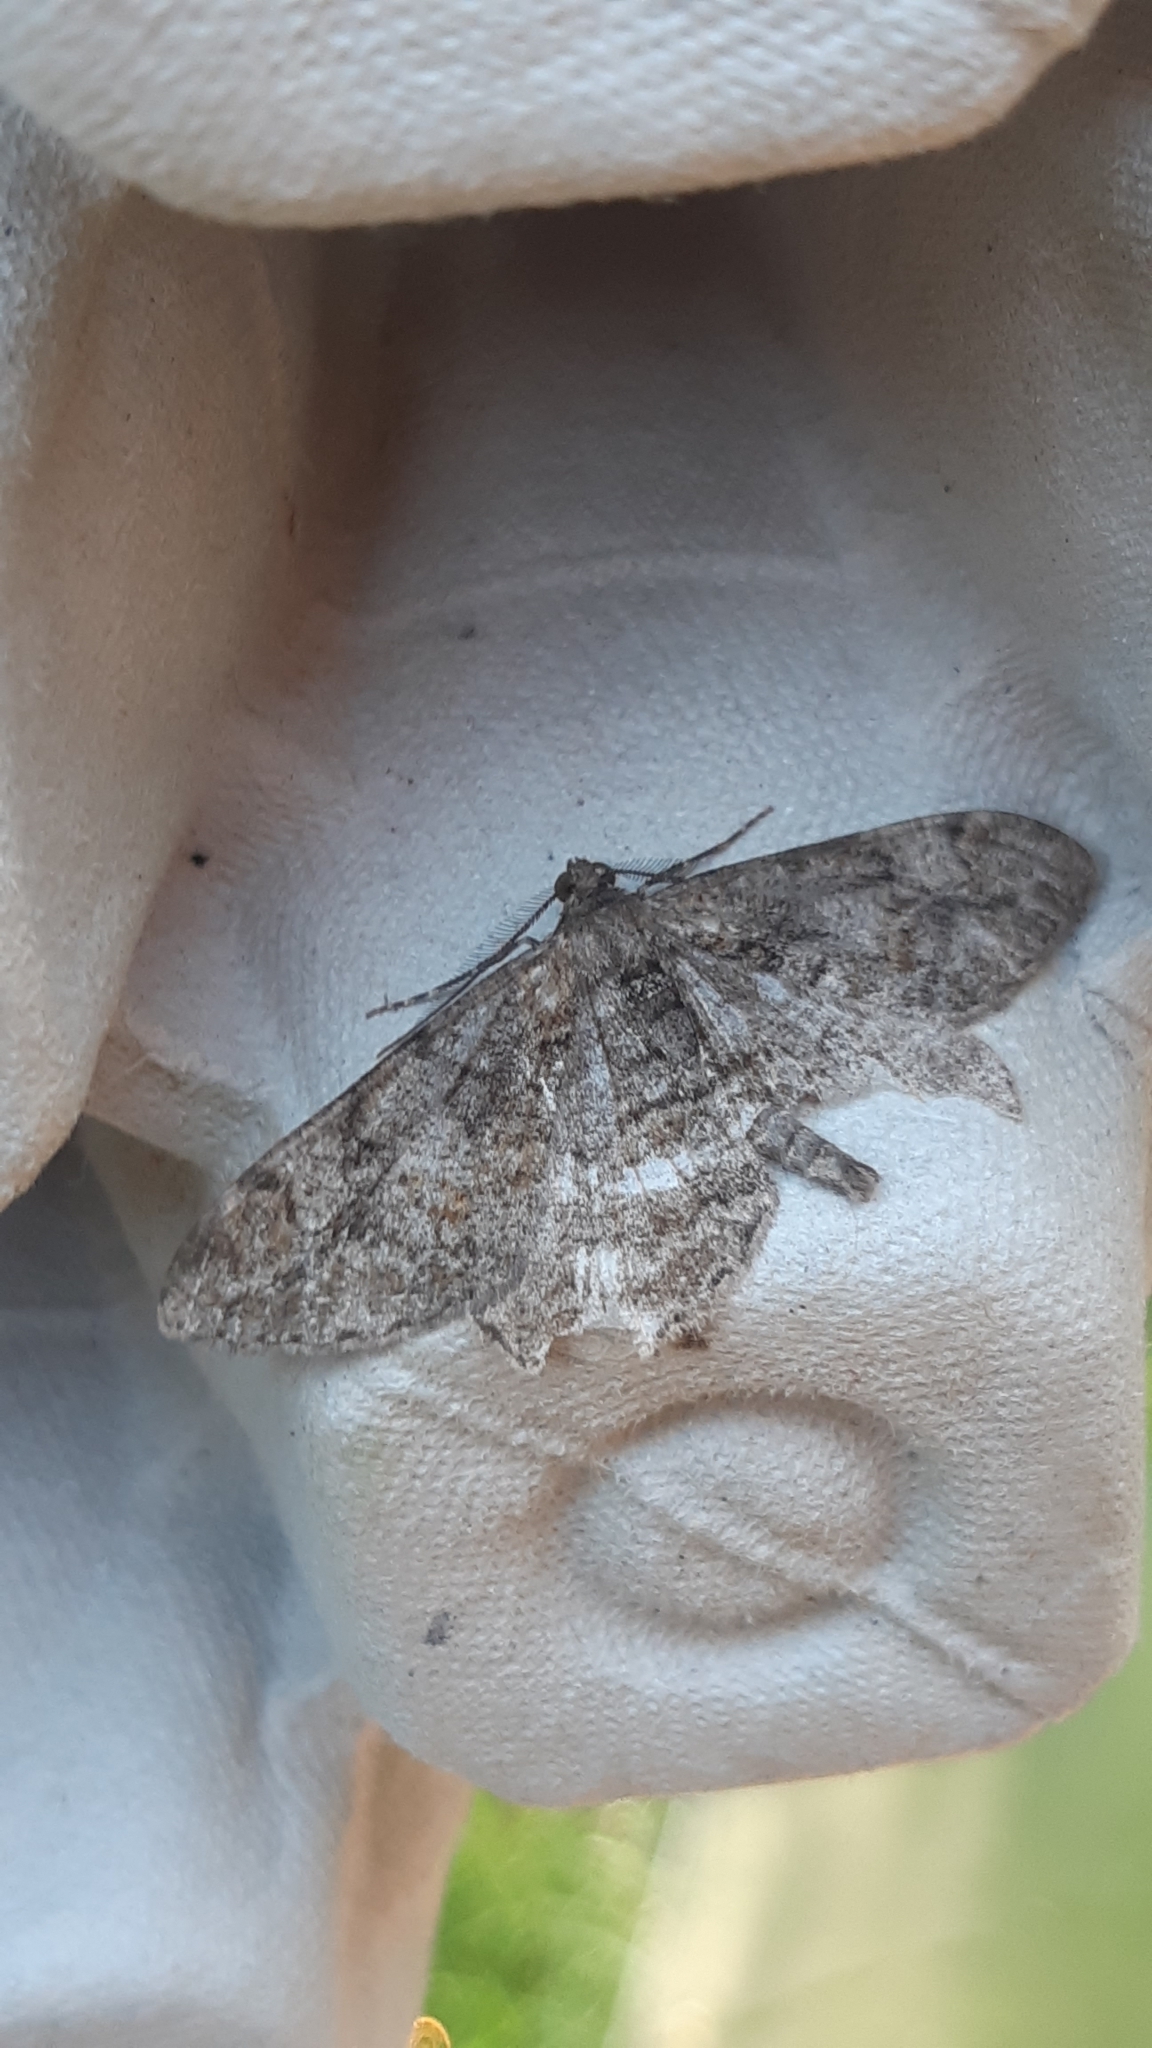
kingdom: Animalia
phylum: Arthropoda
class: Insecta
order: Lepidoptera
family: Geometridae
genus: Peribatodes
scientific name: Peribatodes rhomboidaria
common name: Willow beauty
